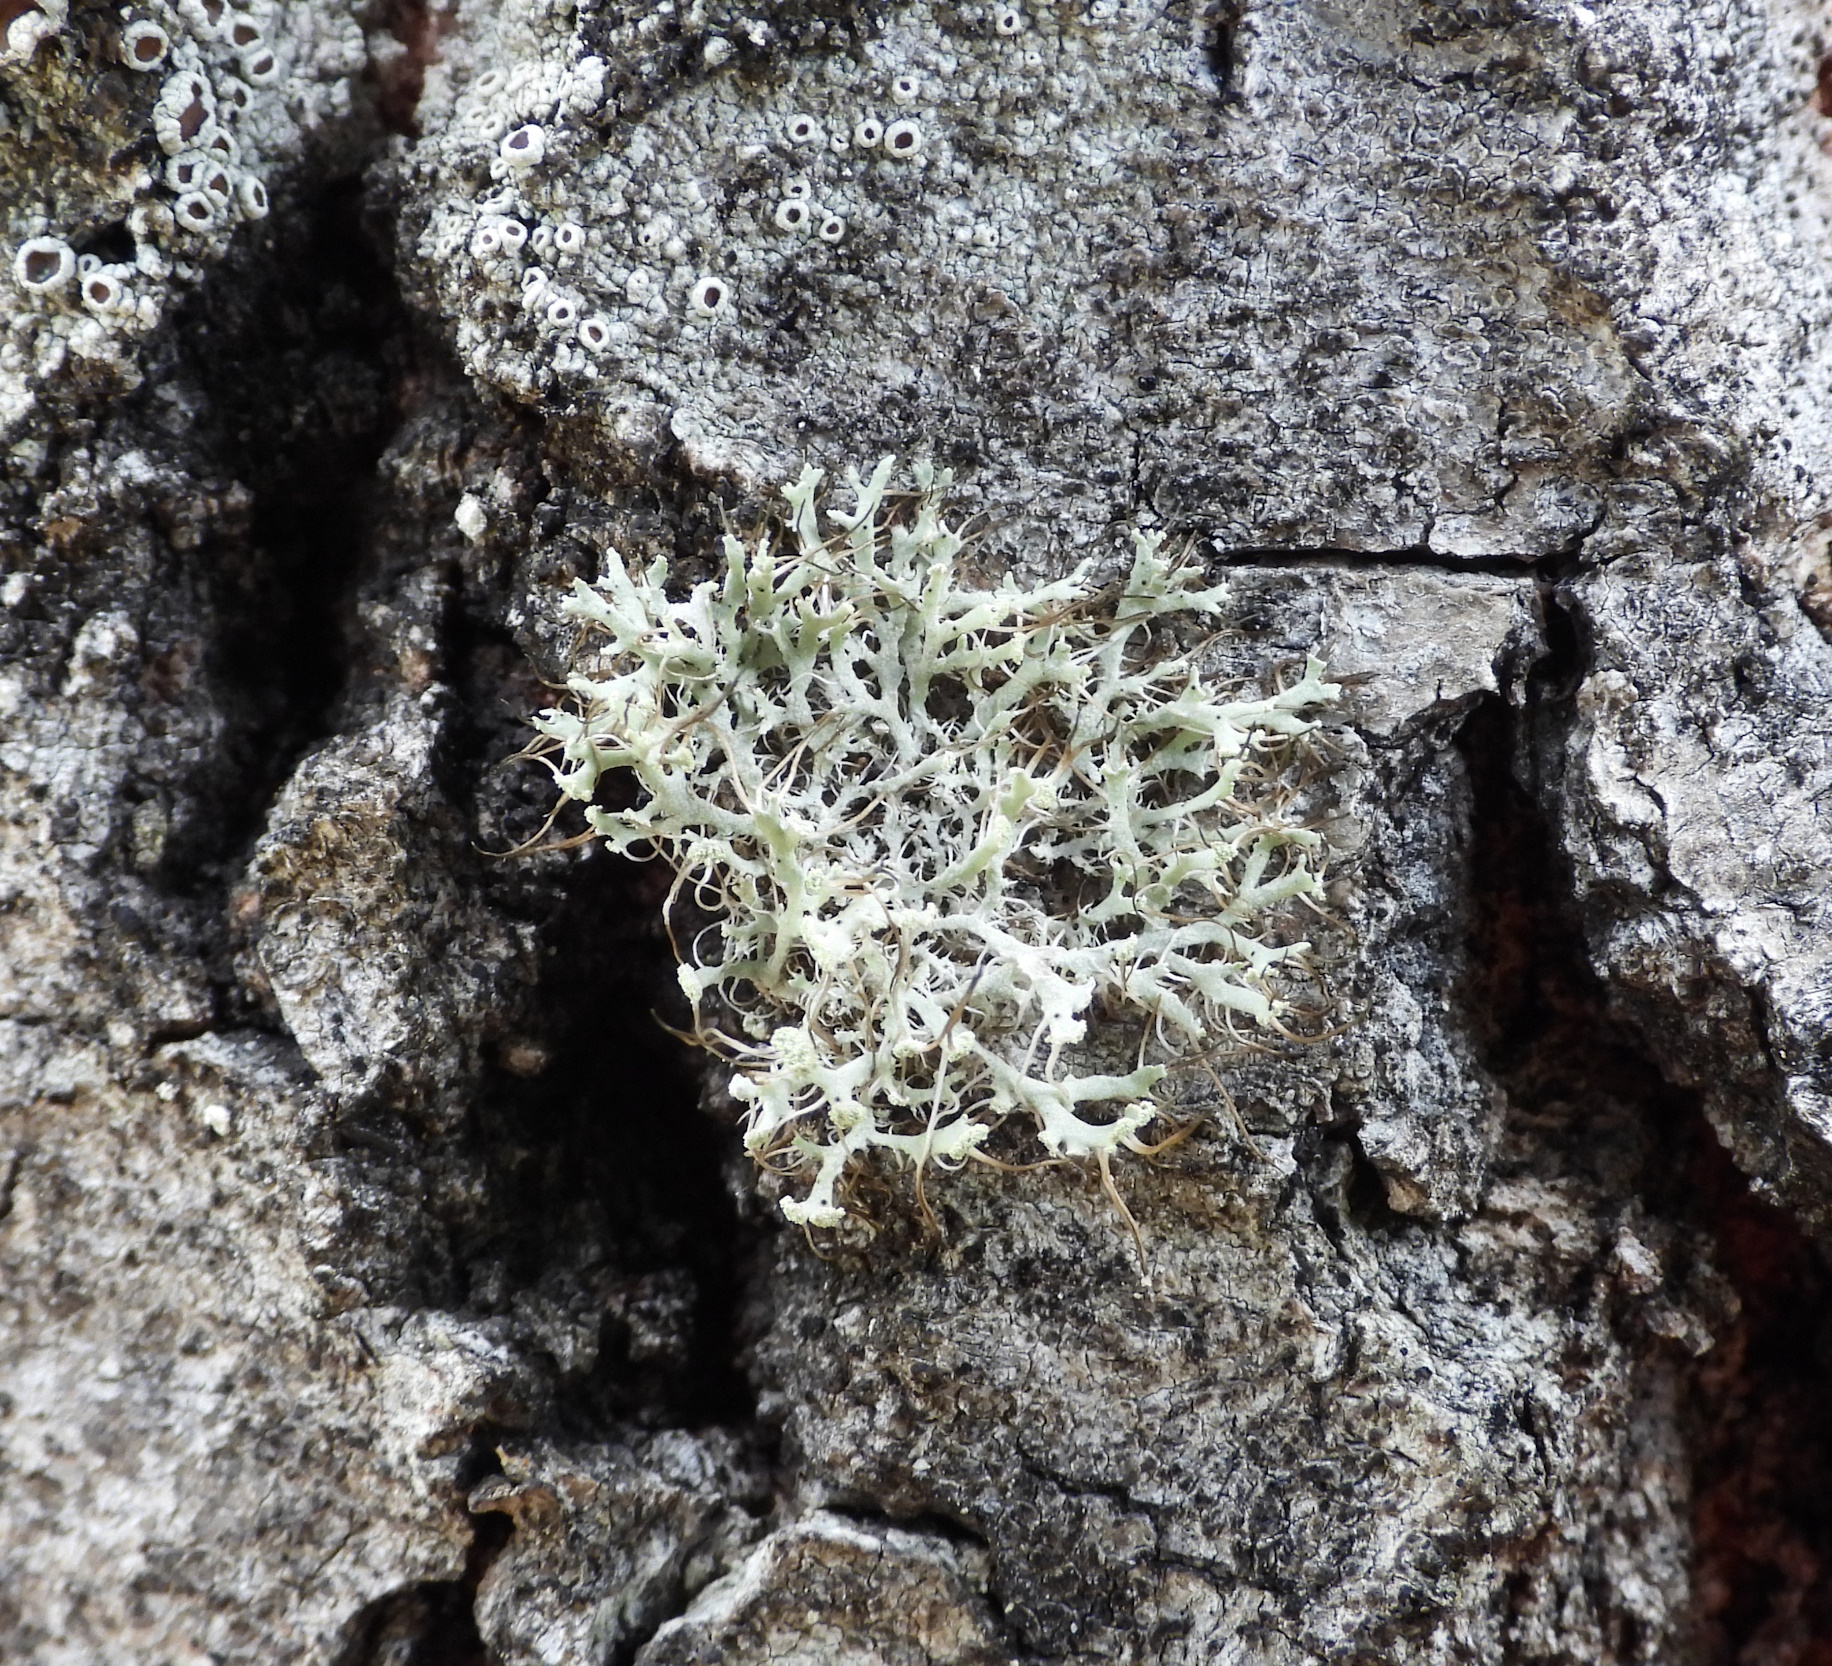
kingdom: Fungi
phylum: Ascomycota
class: Lecanoromycetes
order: Caliciales
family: Physciaceae
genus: Physcia
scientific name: Physcia tenella
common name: Fringed rosette lichen
